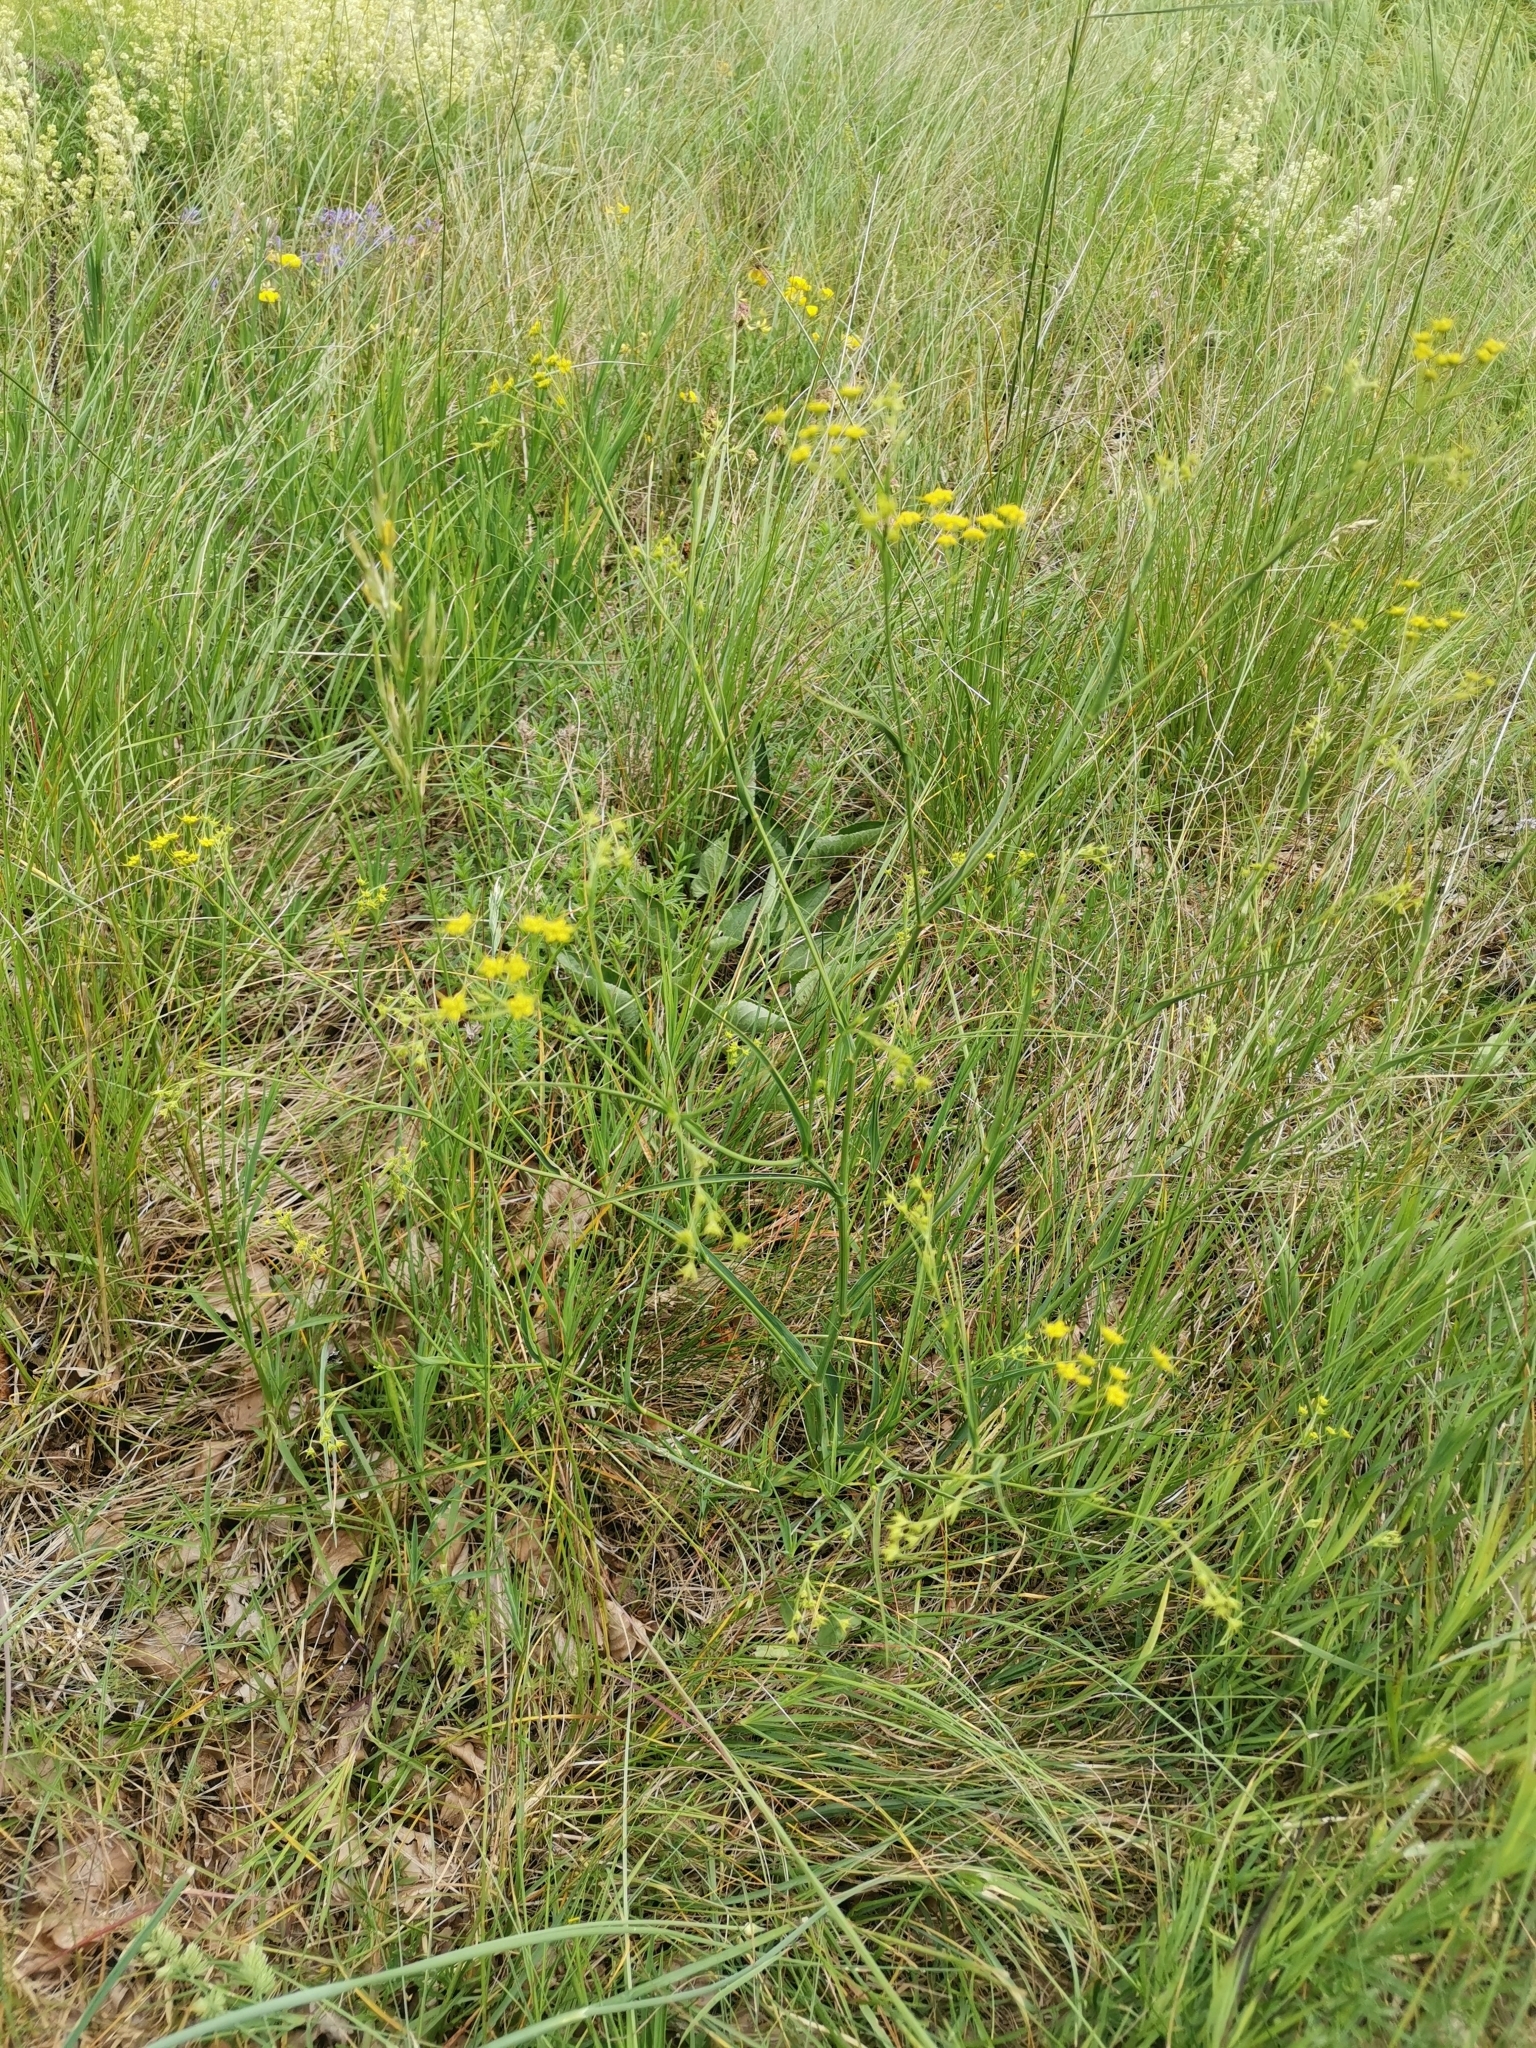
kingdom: Plantae
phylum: Tracheophyta
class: Magnoliopsida
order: Apiales
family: Apiaceae
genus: Bupleurum
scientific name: Bupleurum exaltatum
